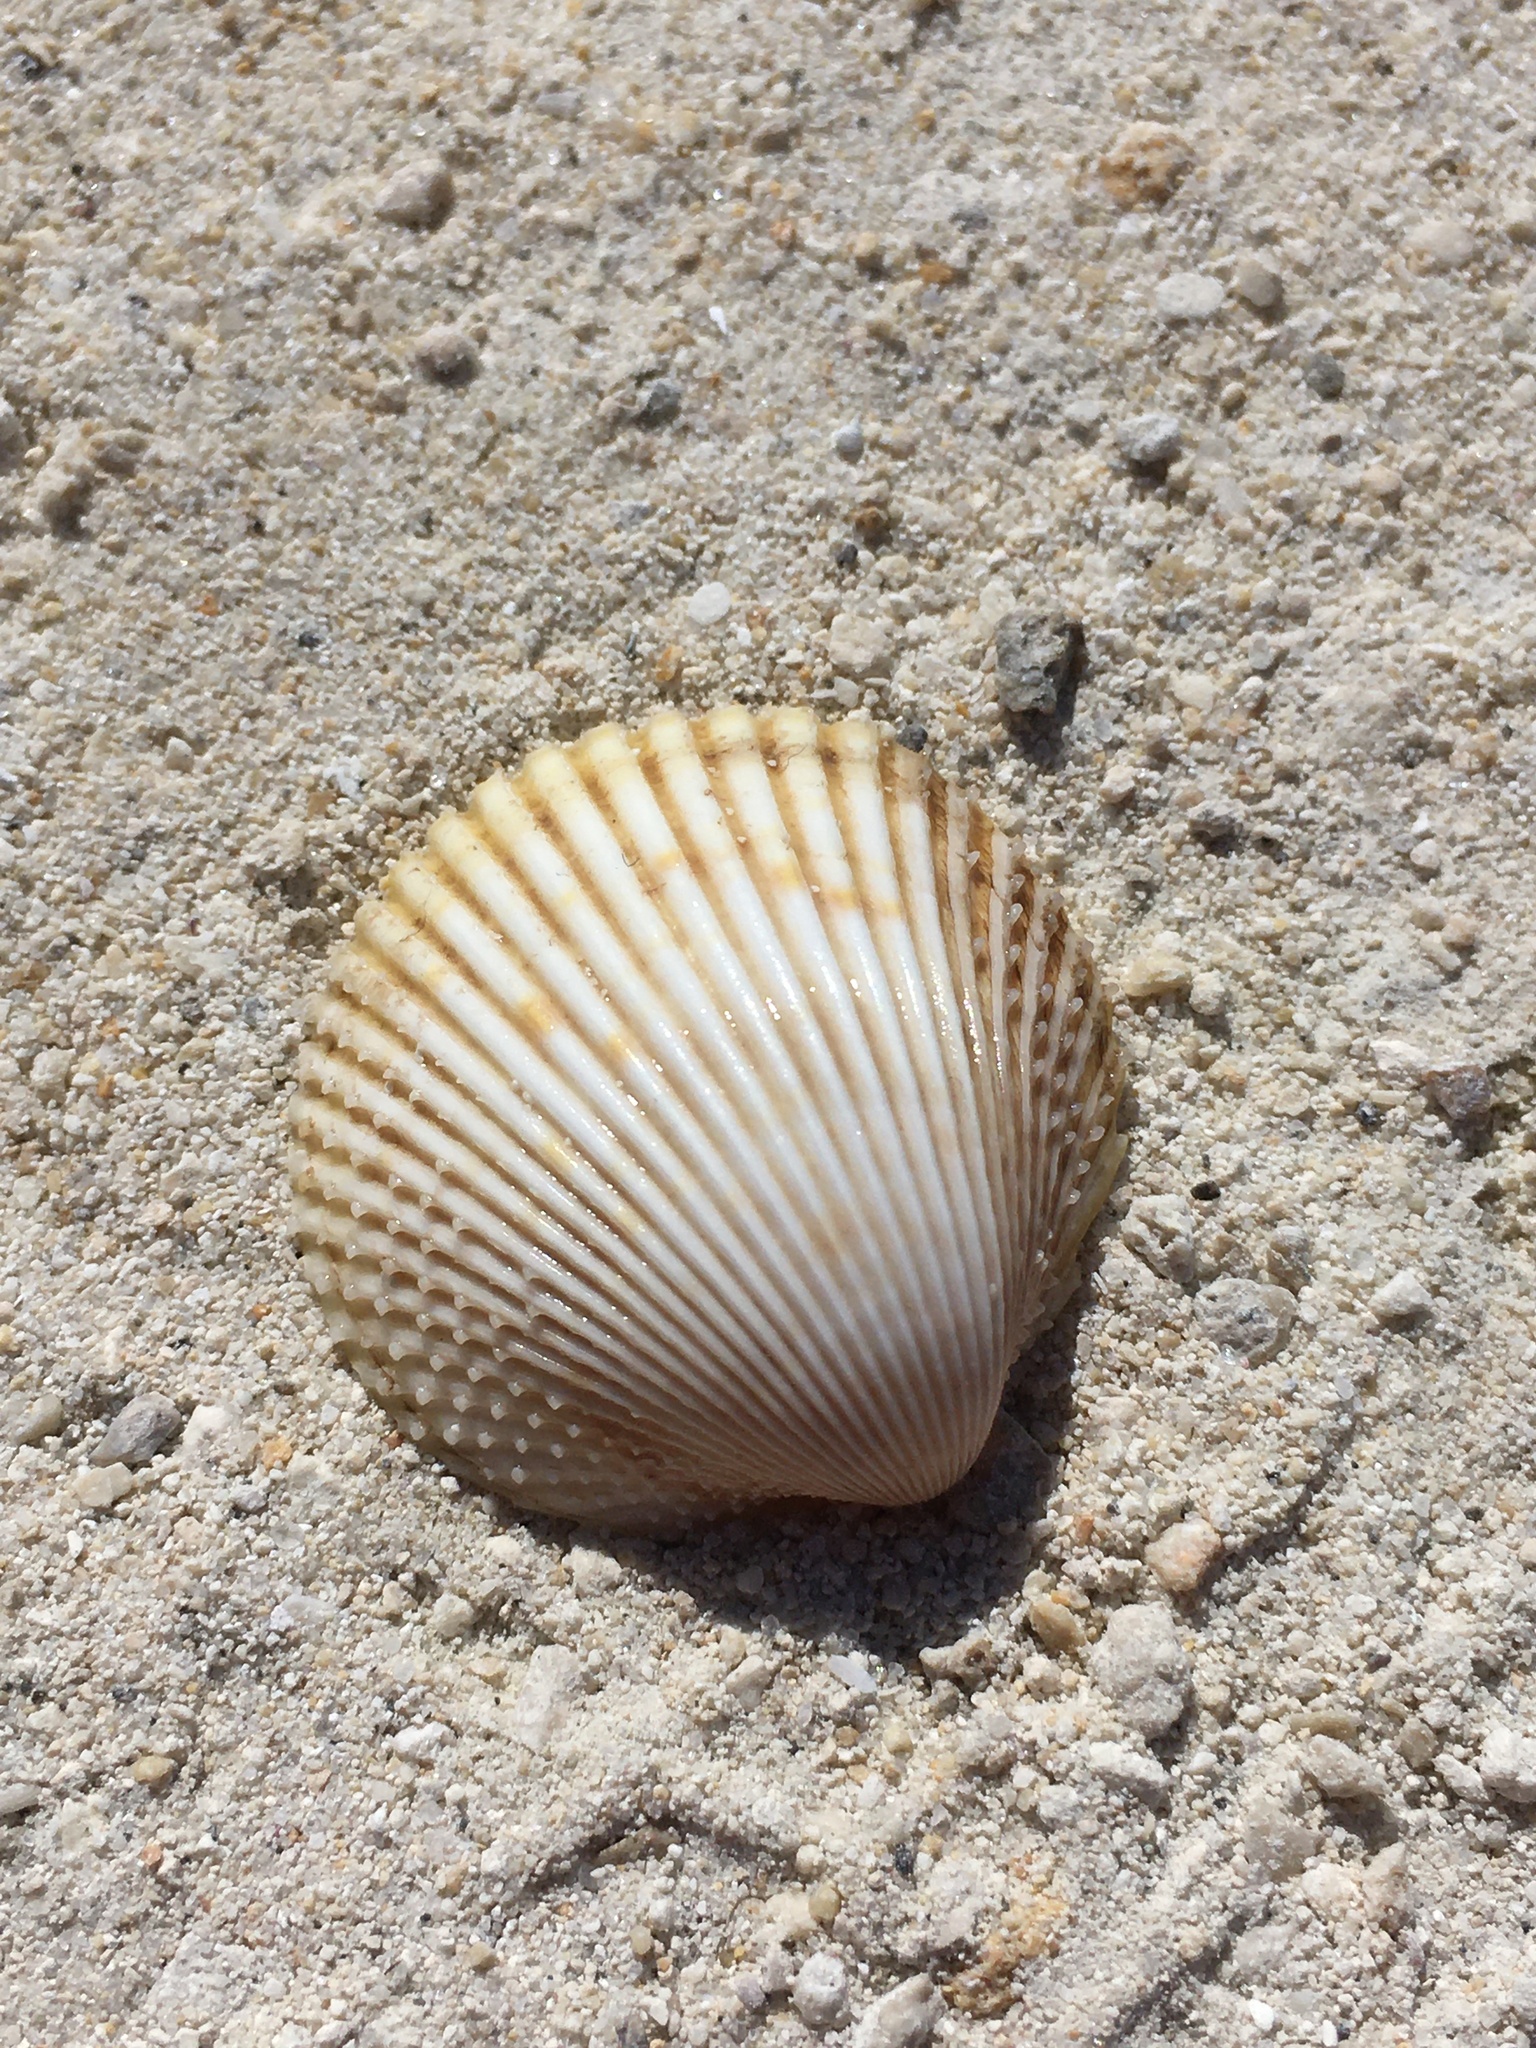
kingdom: Animalia
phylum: Mollusca
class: Bivalvia
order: Cardiida
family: Cardiidae
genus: Dallocardia
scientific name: Dallocardia muricata
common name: Yellow pricklycockle
